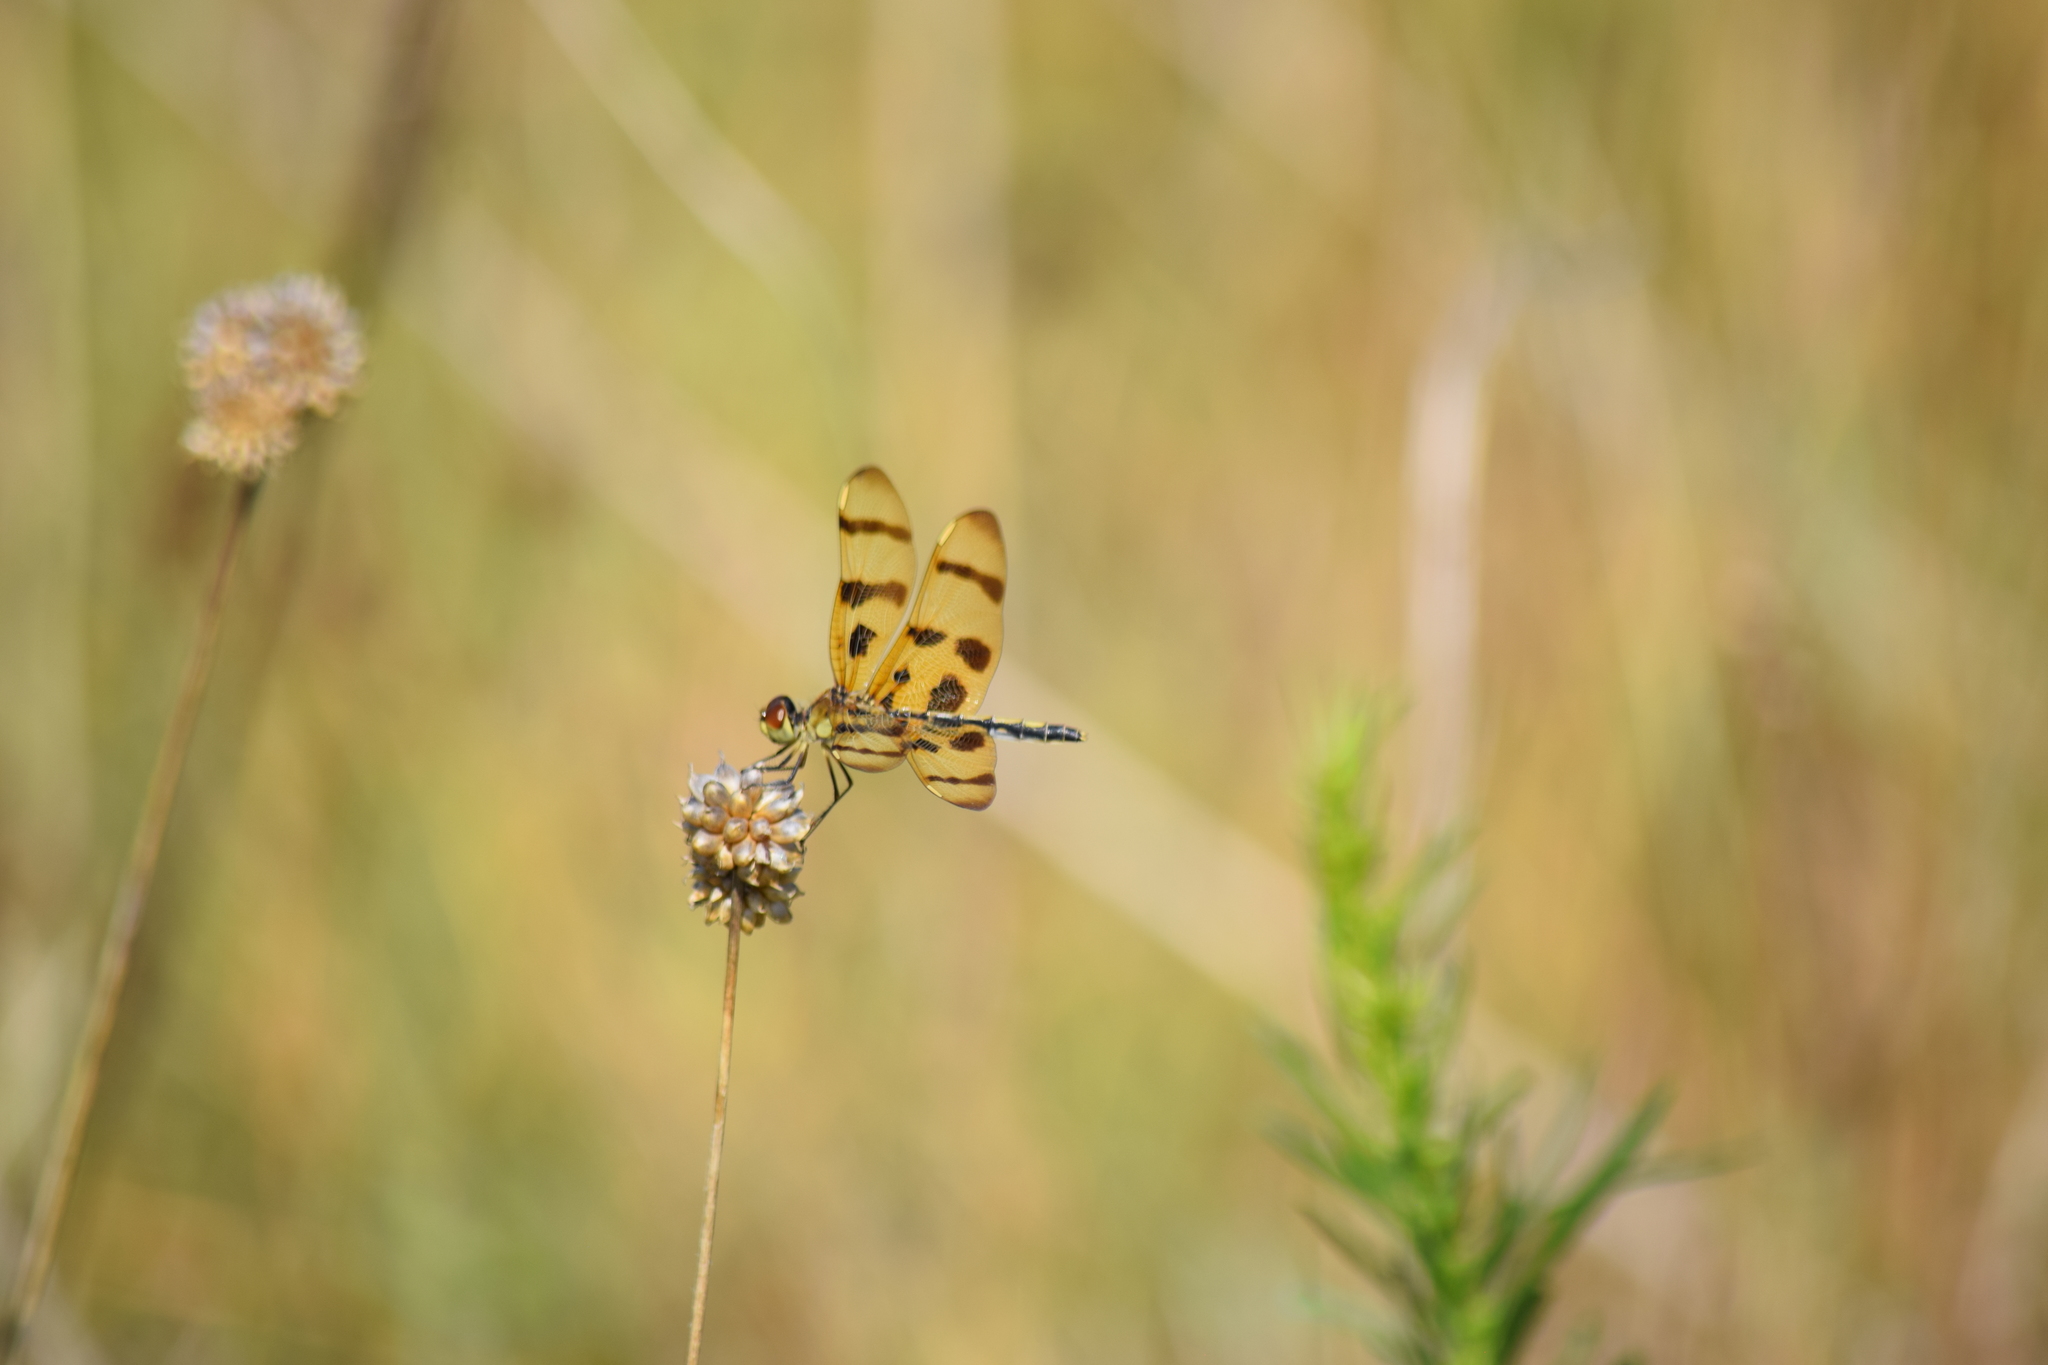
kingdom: Animalia
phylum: Arthropoda
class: Insecta
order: Odonata
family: Libellulidae
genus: Celithemis
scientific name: Celithemis eponina
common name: Halloween pennant
